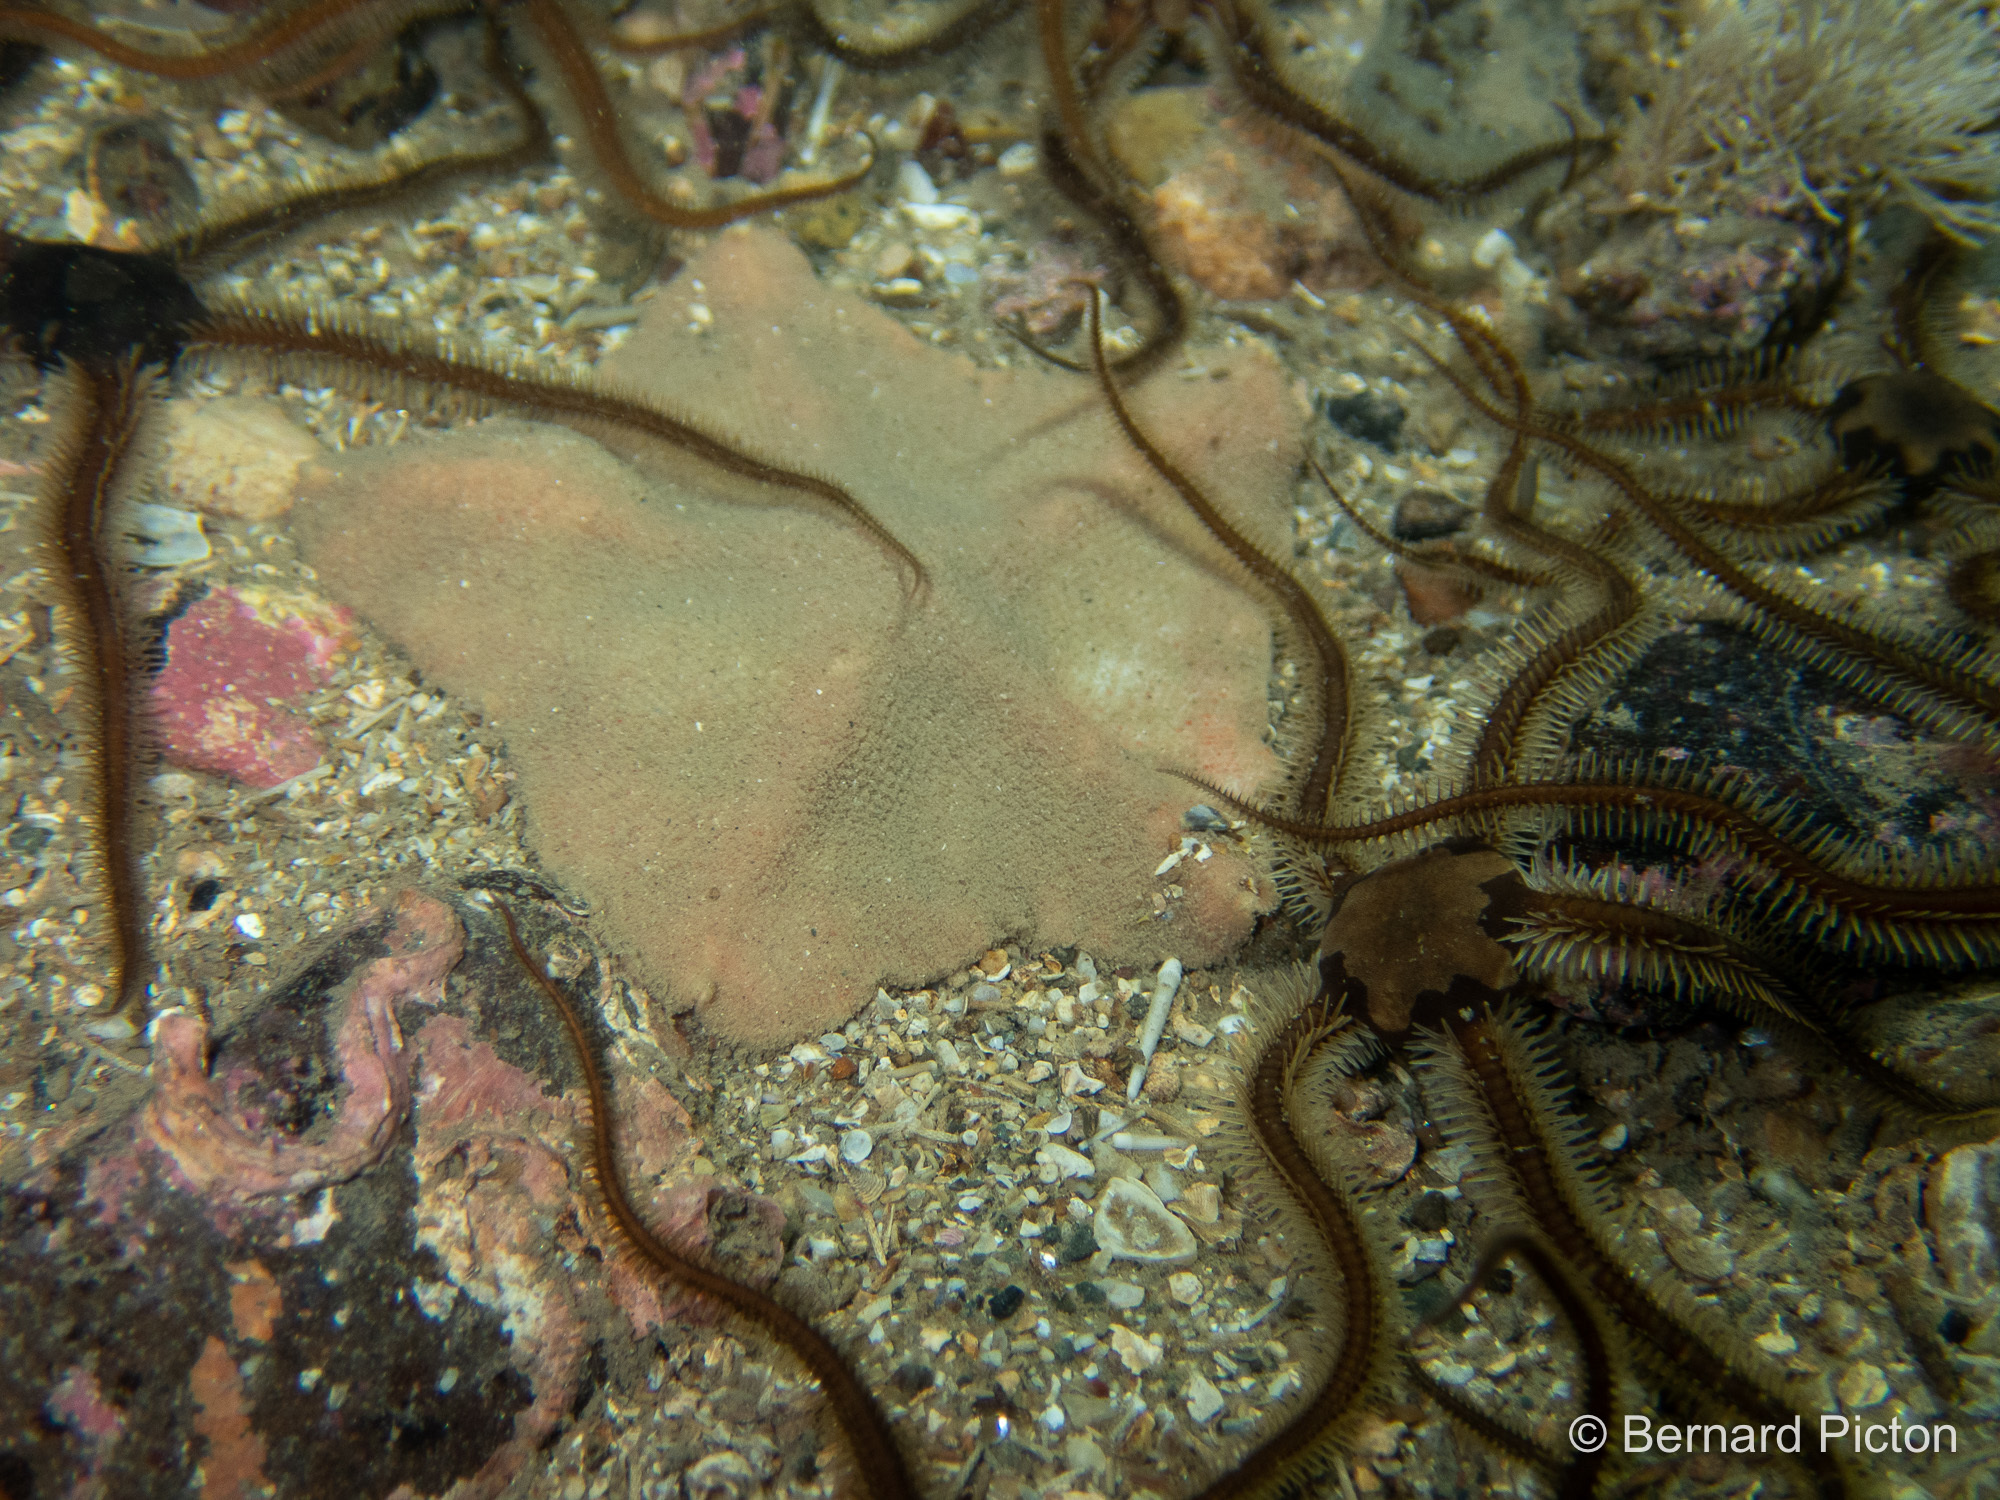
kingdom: Animalia
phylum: Echinodermata
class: Asteroidea
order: Valvatida
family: Anseropodidae
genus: Anseropoda
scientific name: Anseropoda placenta
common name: Goose foot starfish
